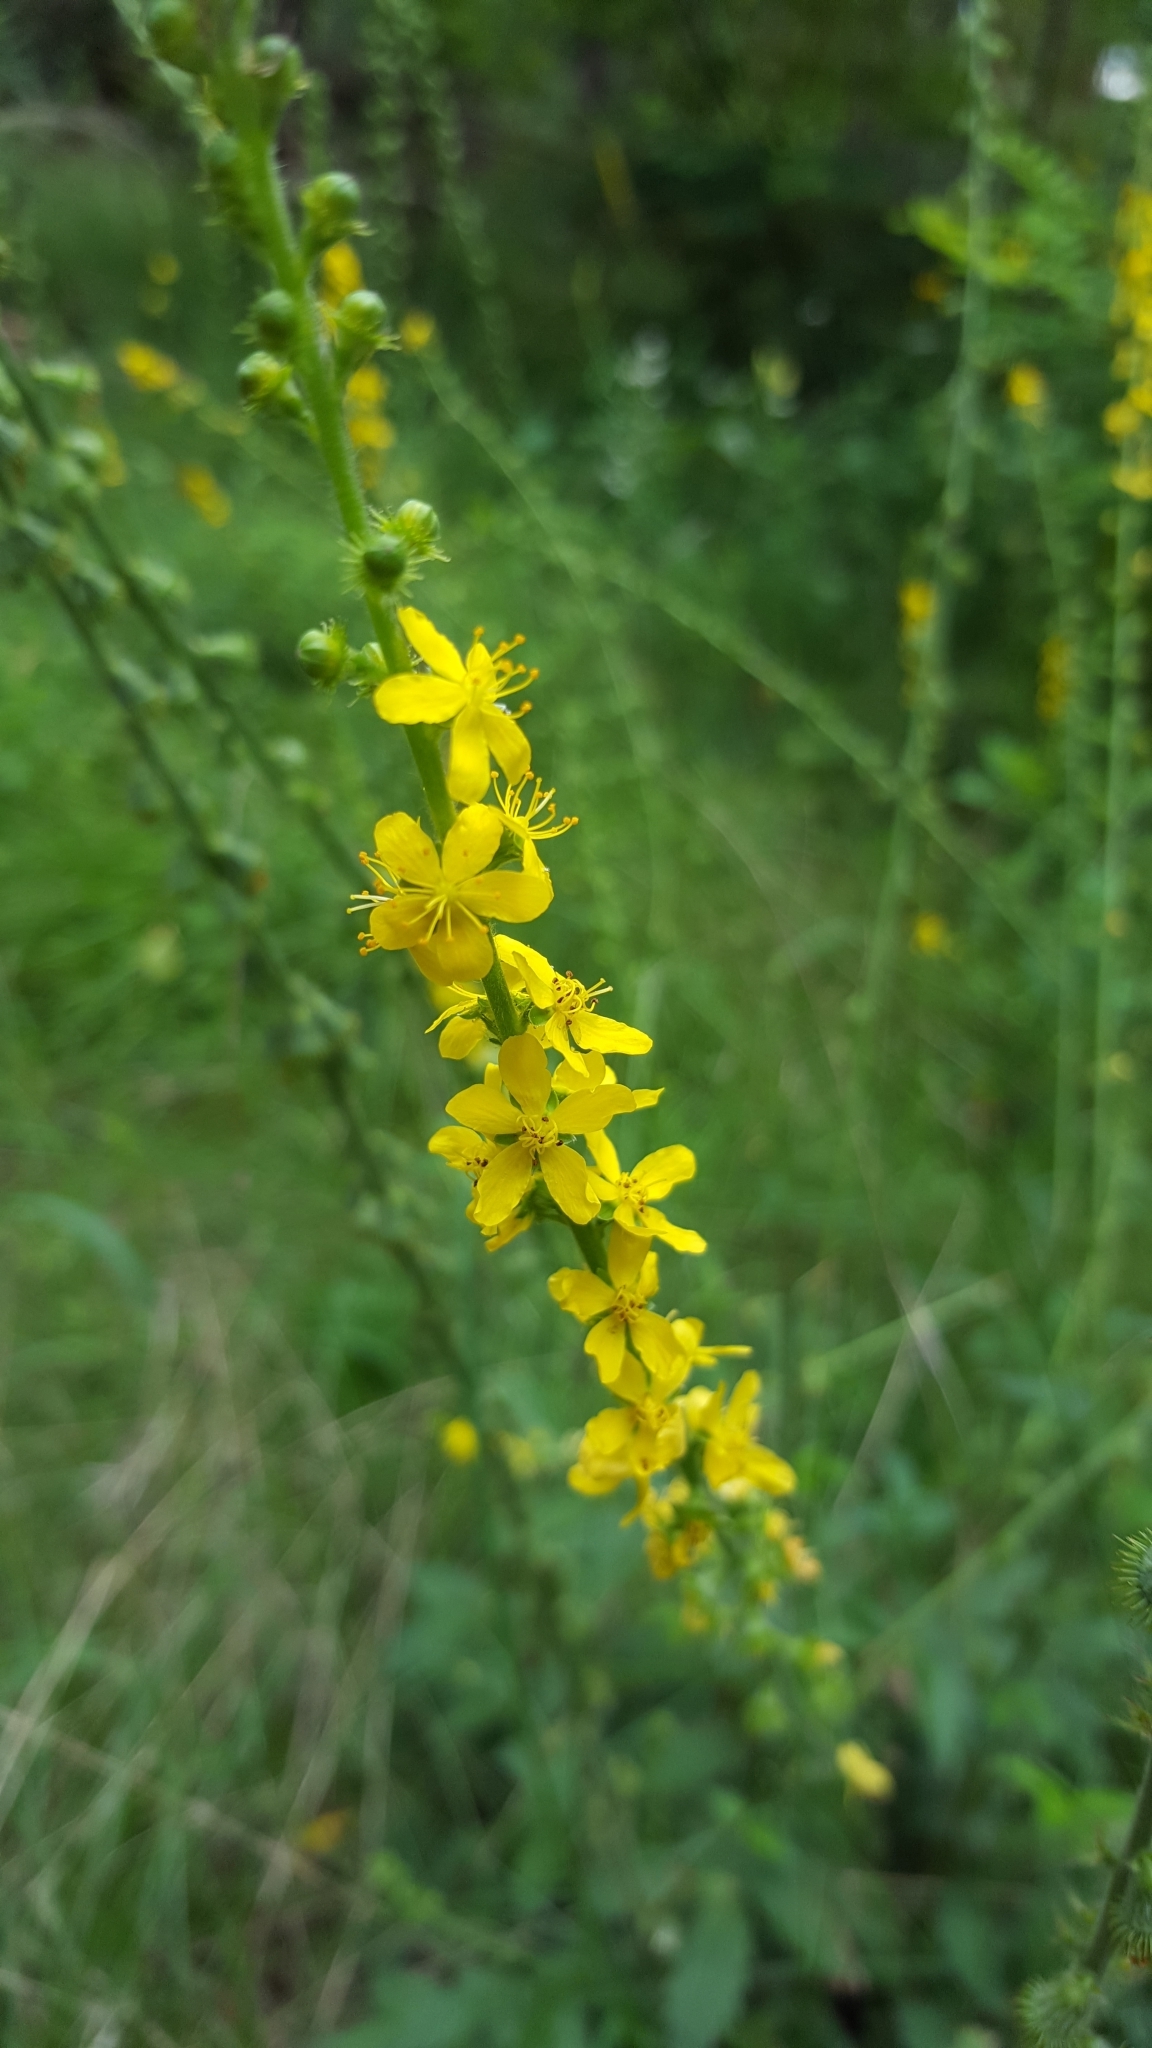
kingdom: Plantae
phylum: Tracheophyta
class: Magnoliopsida
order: Rosales
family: Rosaceae
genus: Agrimonia
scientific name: Agrimonia eupatoria
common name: Agrimony
